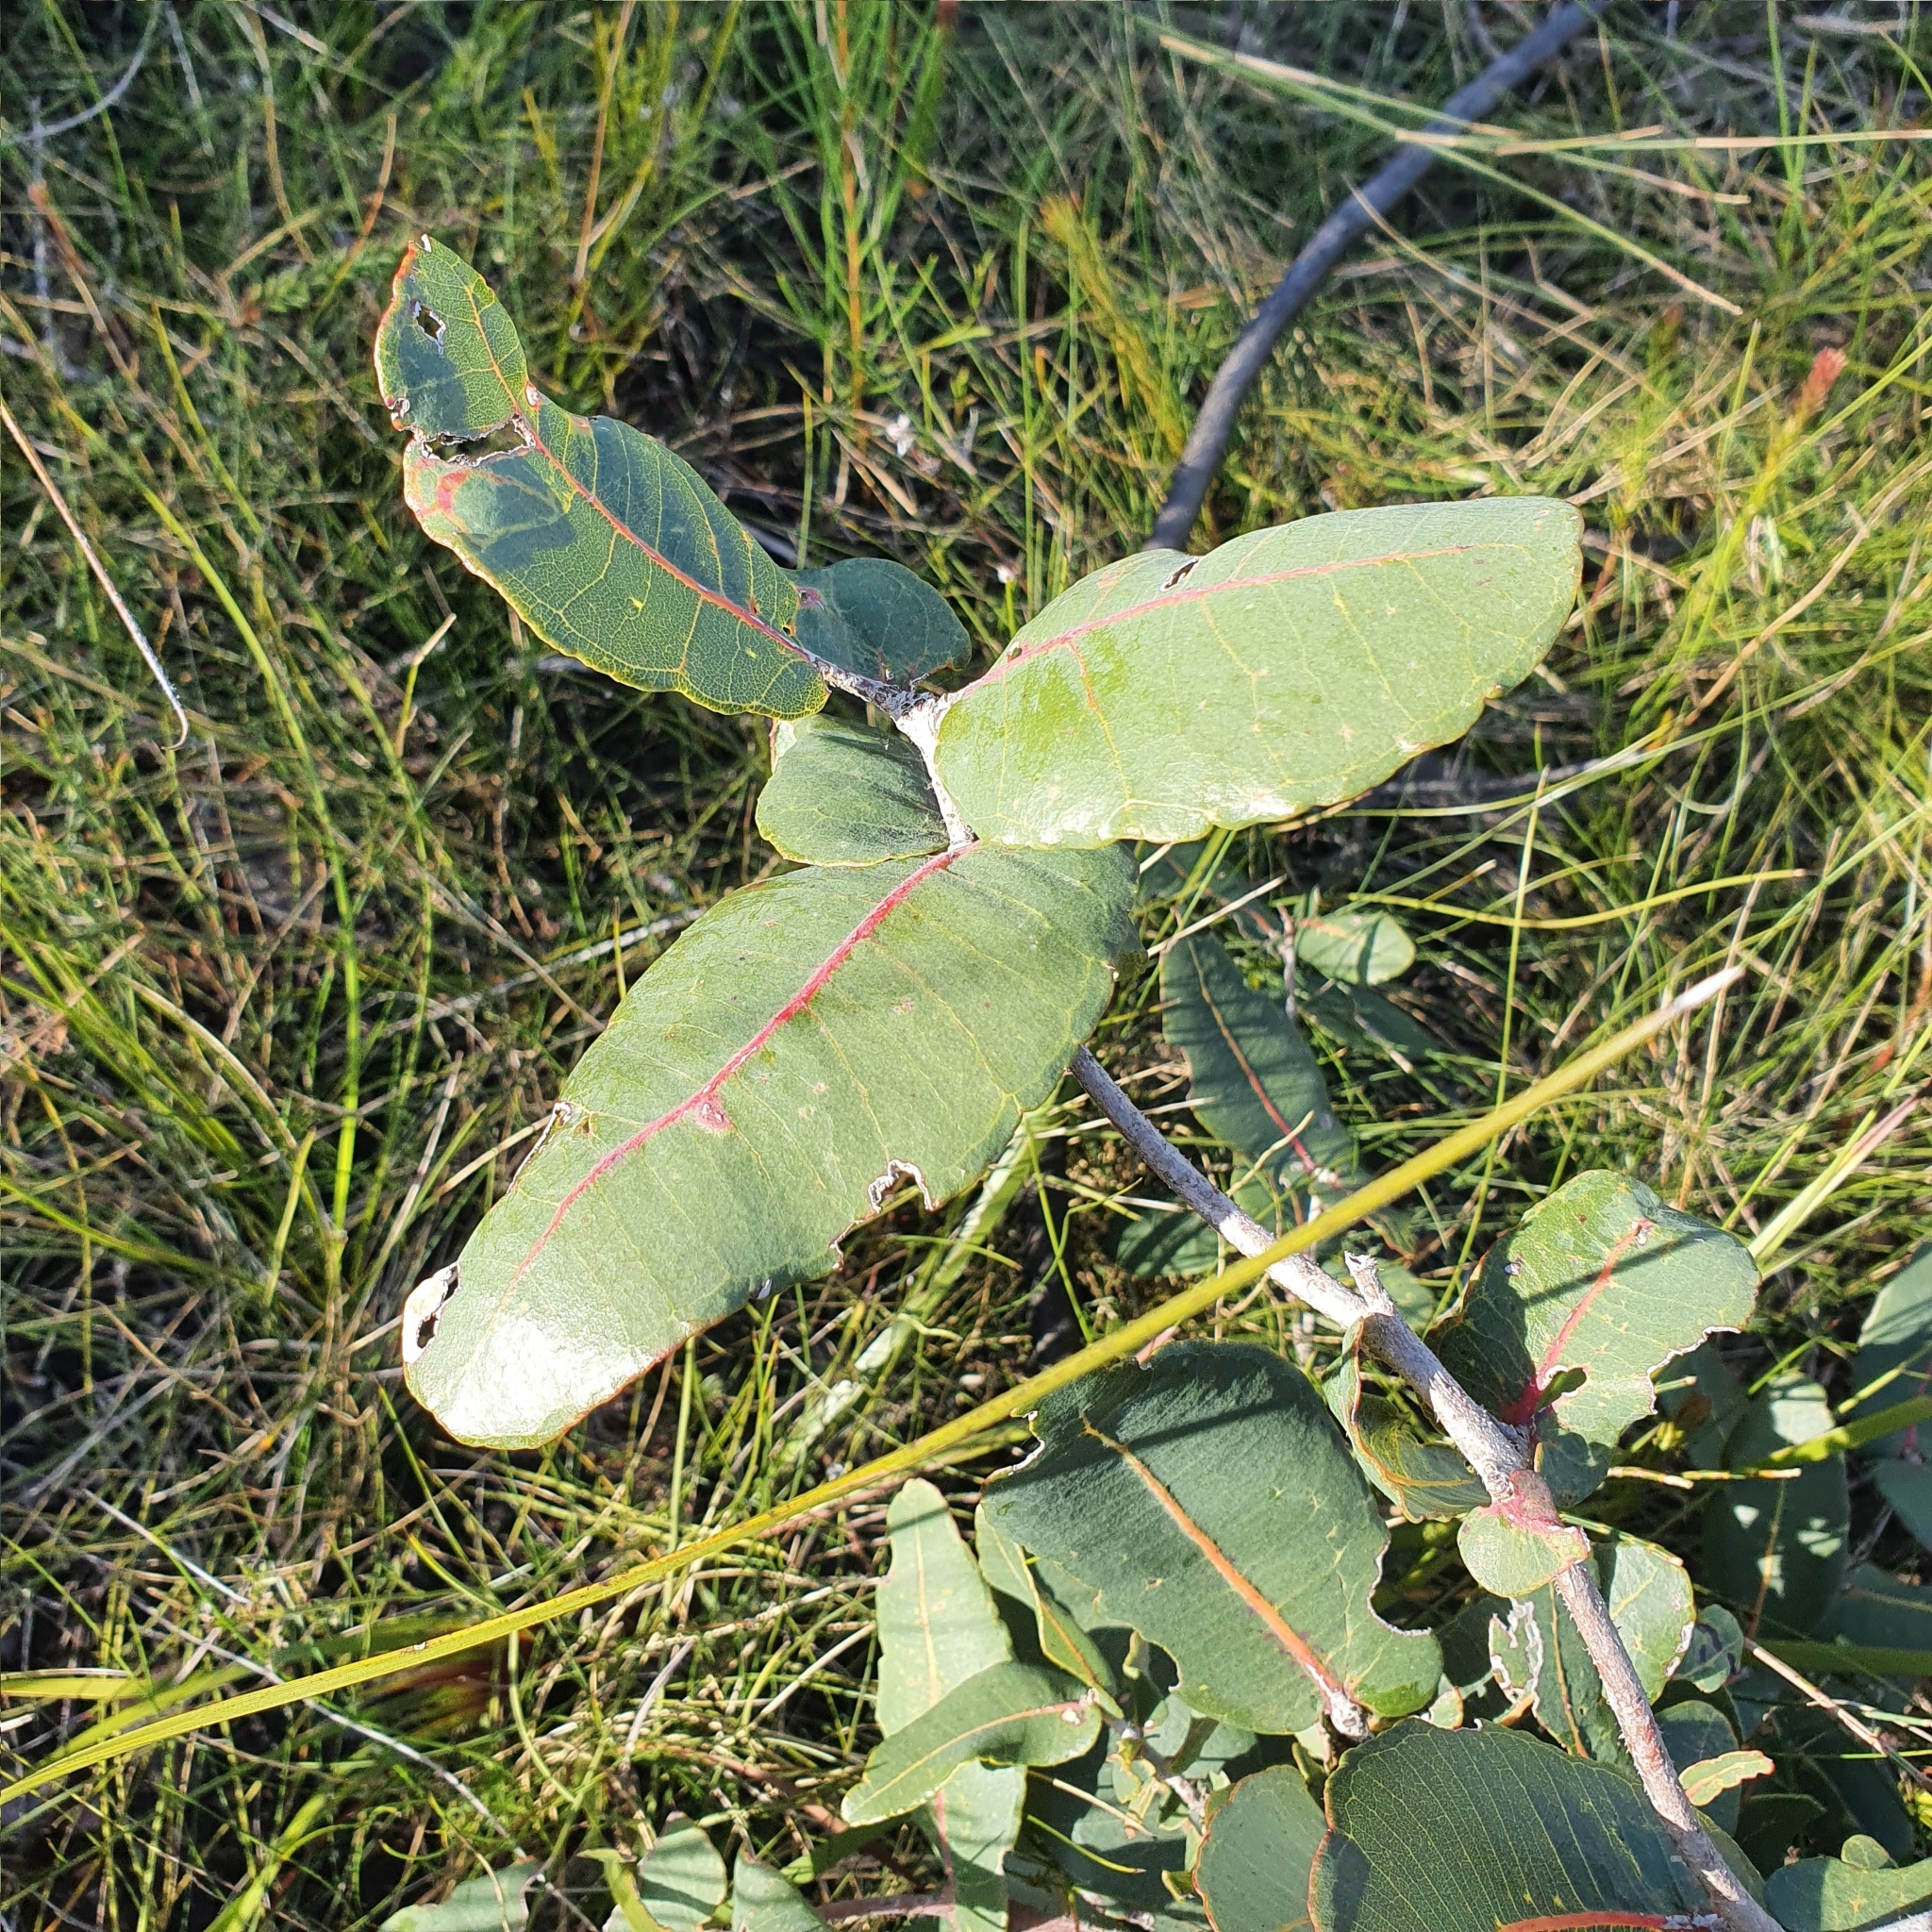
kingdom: Plantae
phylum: Tracheophyta
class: Magnoliopsida
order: Myrtales
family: Myrtaceae
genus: Angophora
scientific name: Angophora hispida
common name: Dwarf-apple
